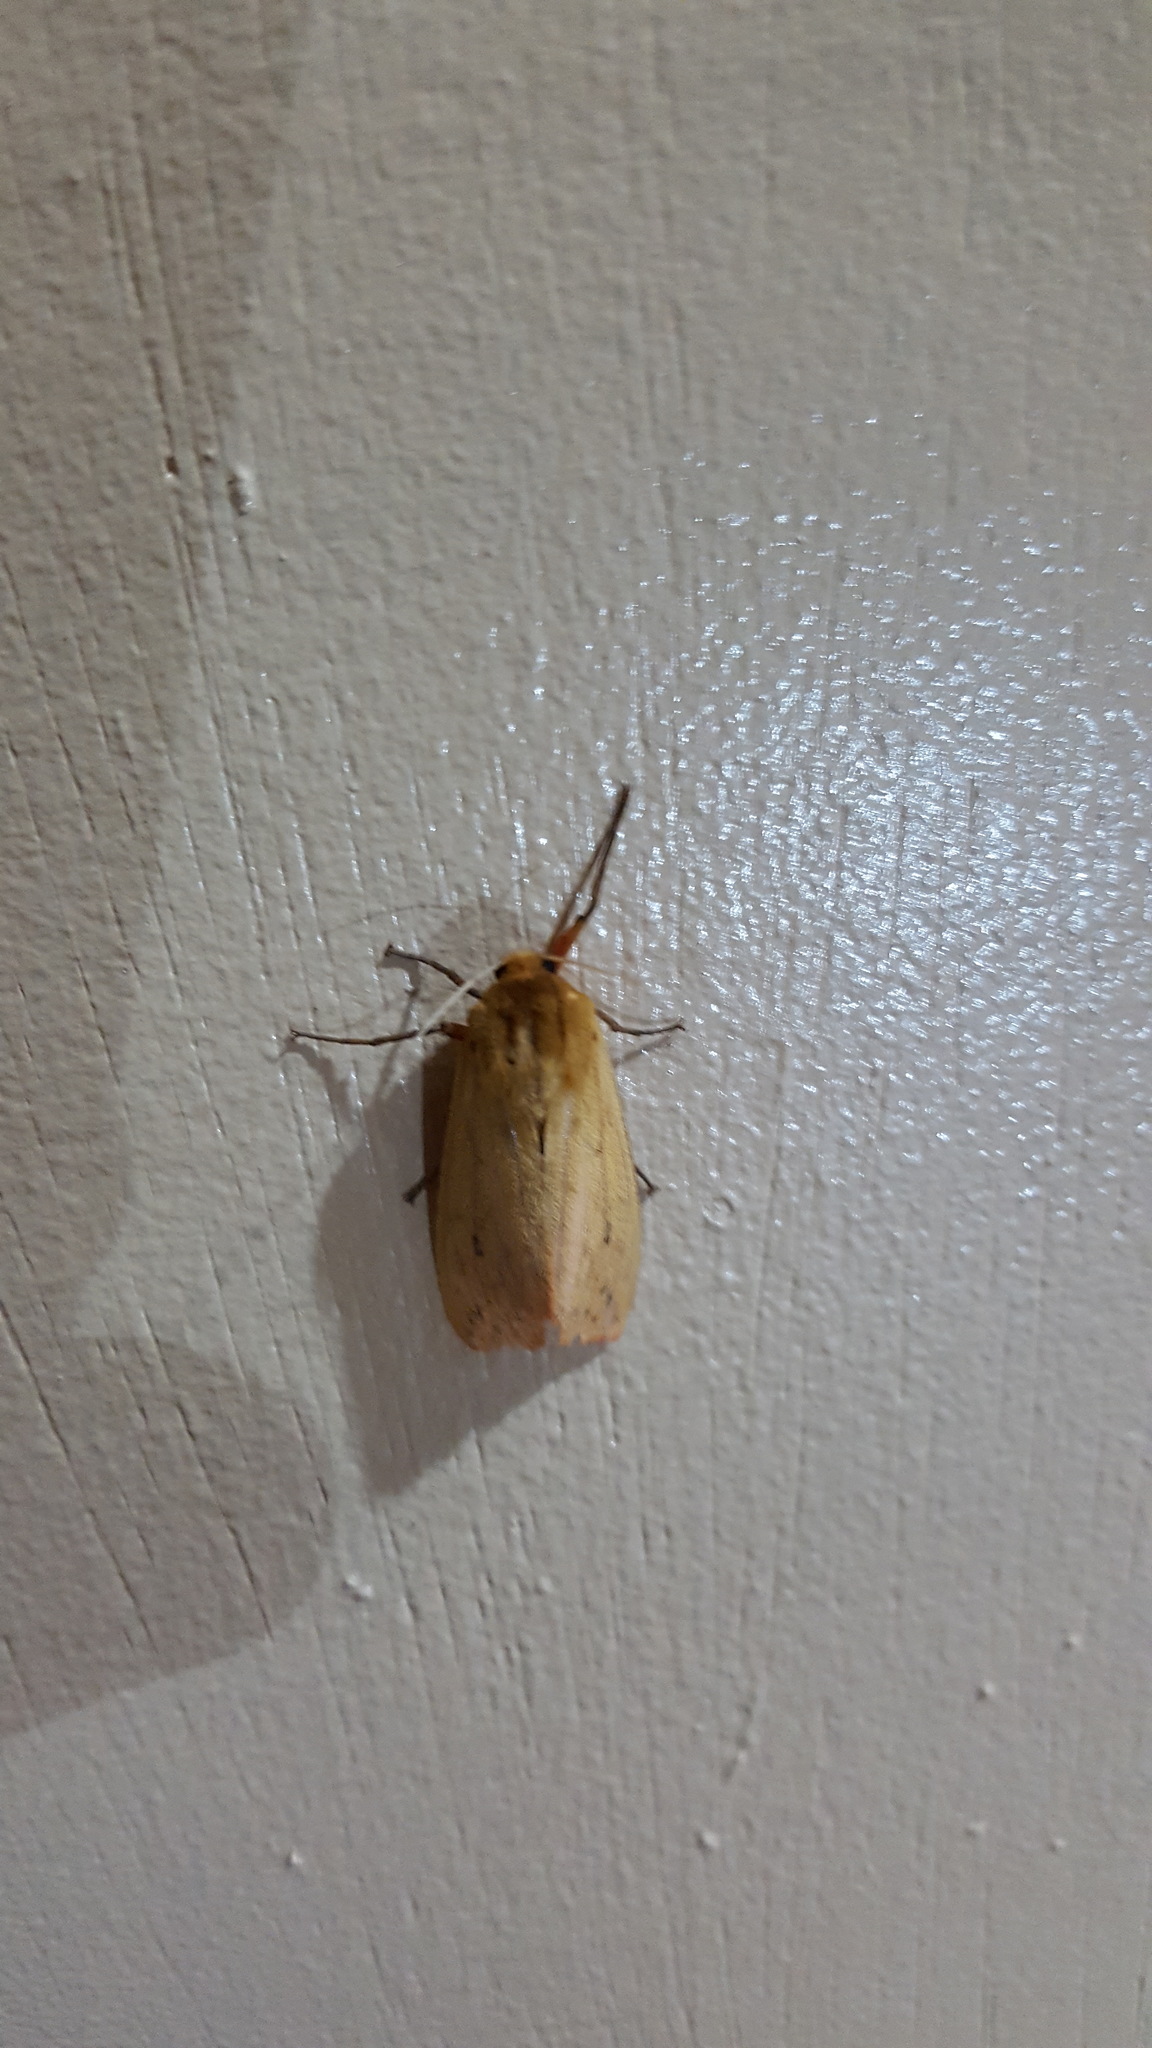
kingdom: Animalia
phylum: Arthropoda
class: Insecta
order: Lepidoptera
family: Erebidae
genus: Pyrrharctia
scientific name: Pyrrharctia isabella
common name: Isabella tiger moth
